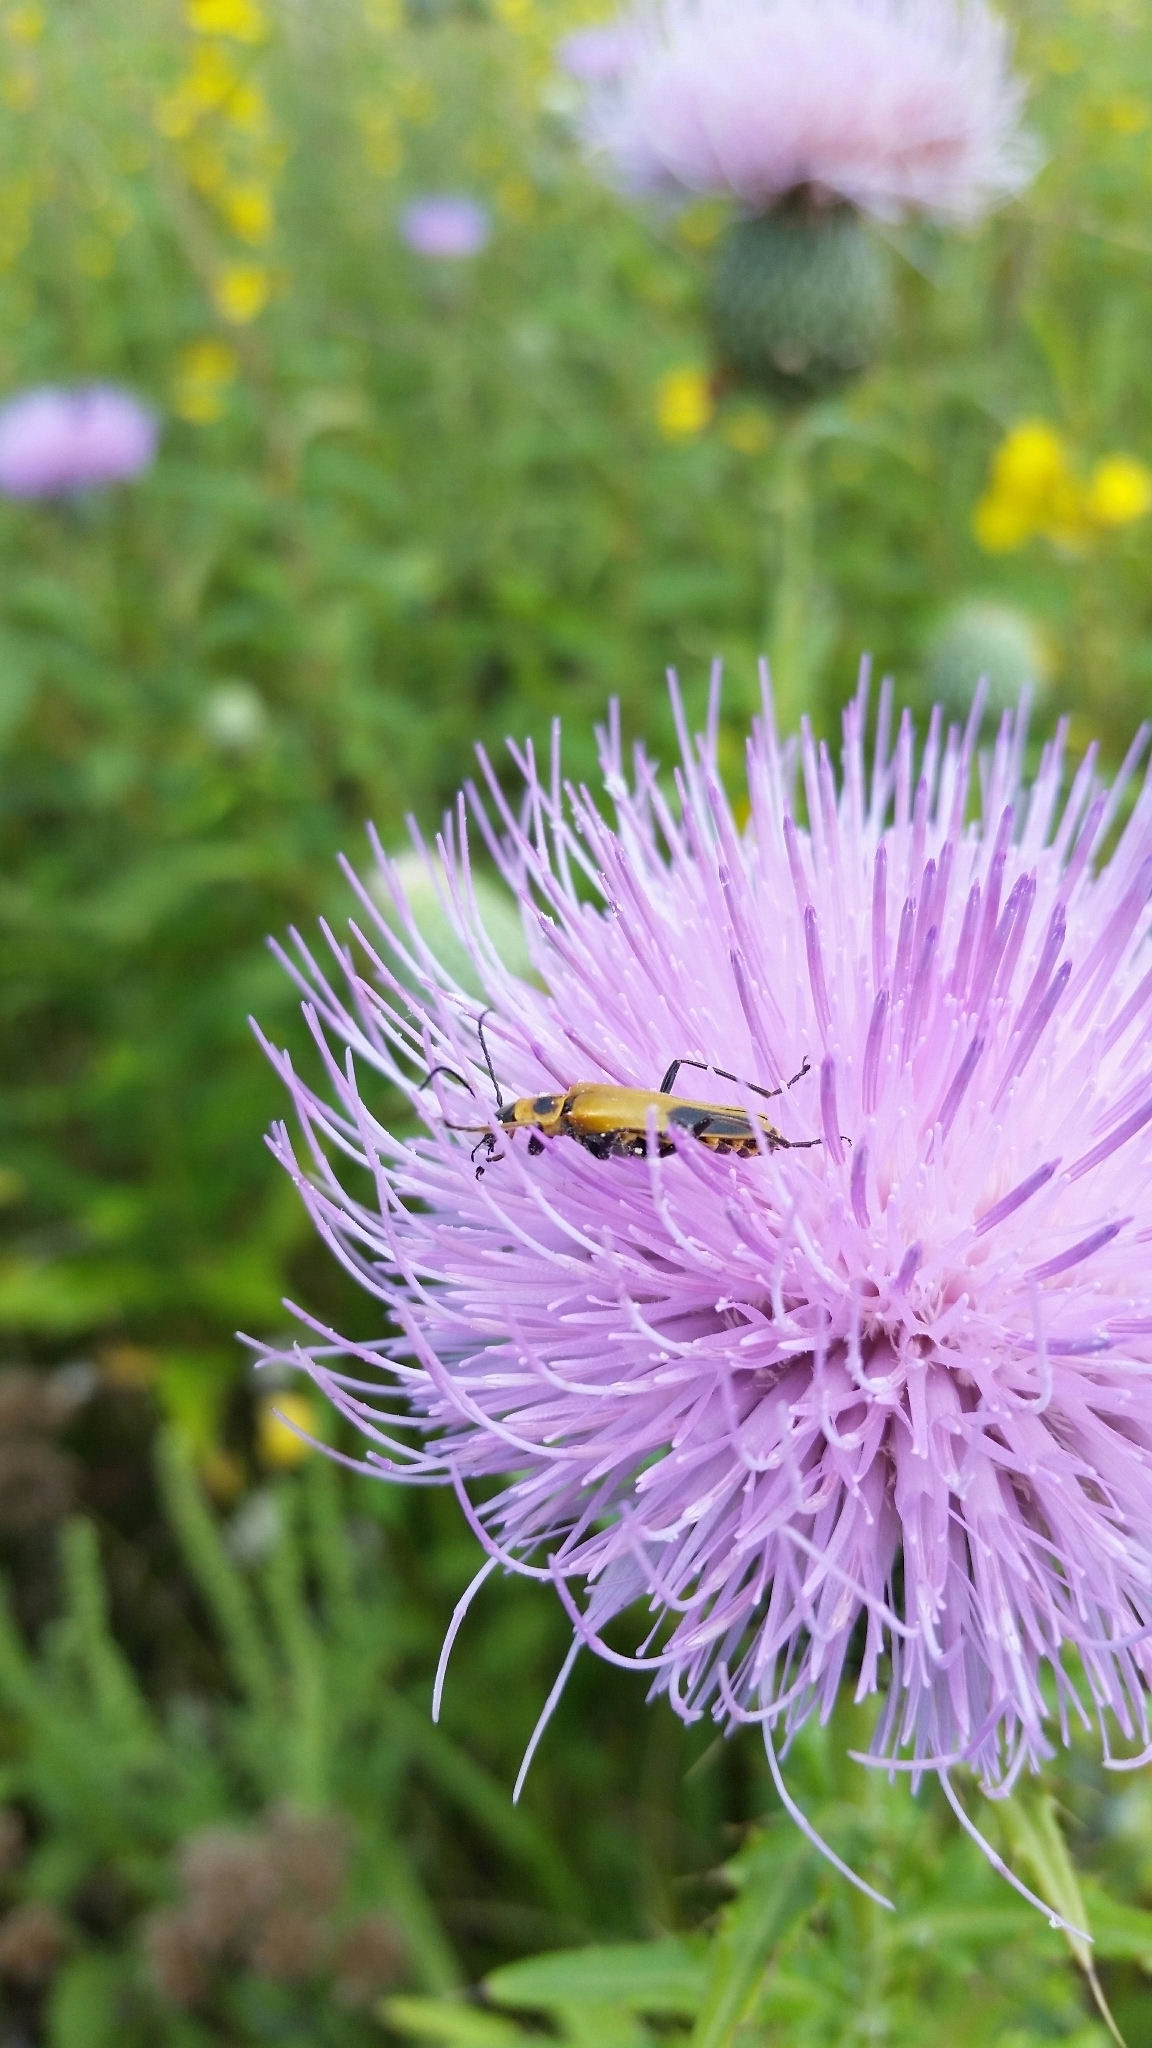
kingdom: Animalia
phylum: Arthropoda
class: Insecta
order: Coleoptera
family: Cantharidae
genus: Chauliognathus
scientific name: Chauliognathus pensylvanicus
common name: Goldenrod soldier beetle
